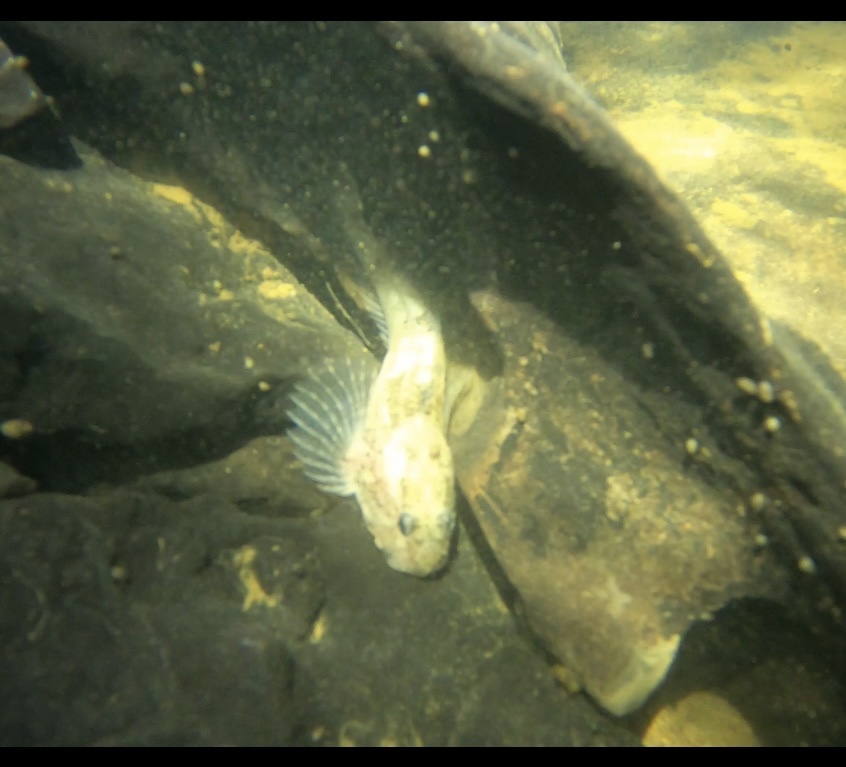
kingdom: Animalia
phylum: Chordata
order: Scorpaeniformes
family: Cottidae
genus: Cottus
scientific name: Cottus specus
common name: Grotto sculpin
